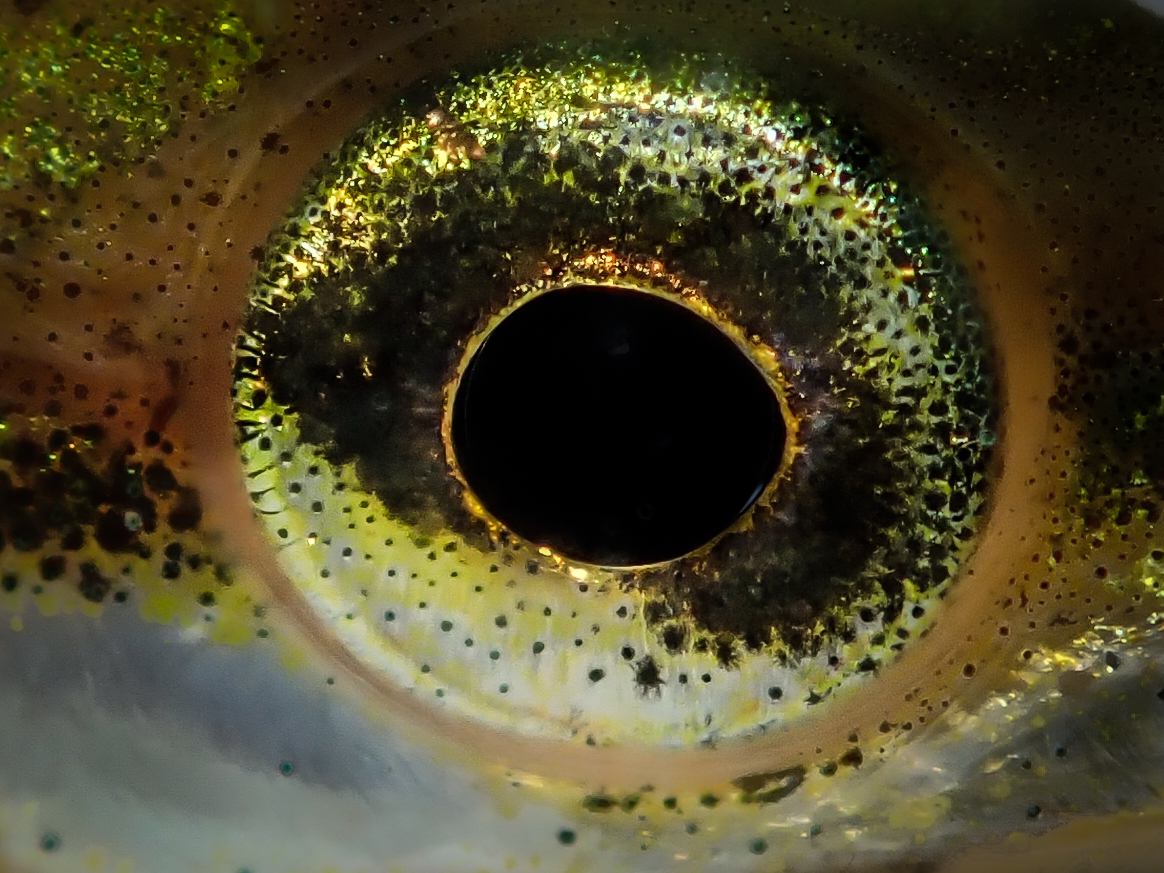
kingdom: Animalia
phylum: Chordata
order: Gasterosteiformes
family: Gasterosteidae
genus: Spinachia
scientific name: Spinachia spinachia
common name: Fifteen-spined stickleback
